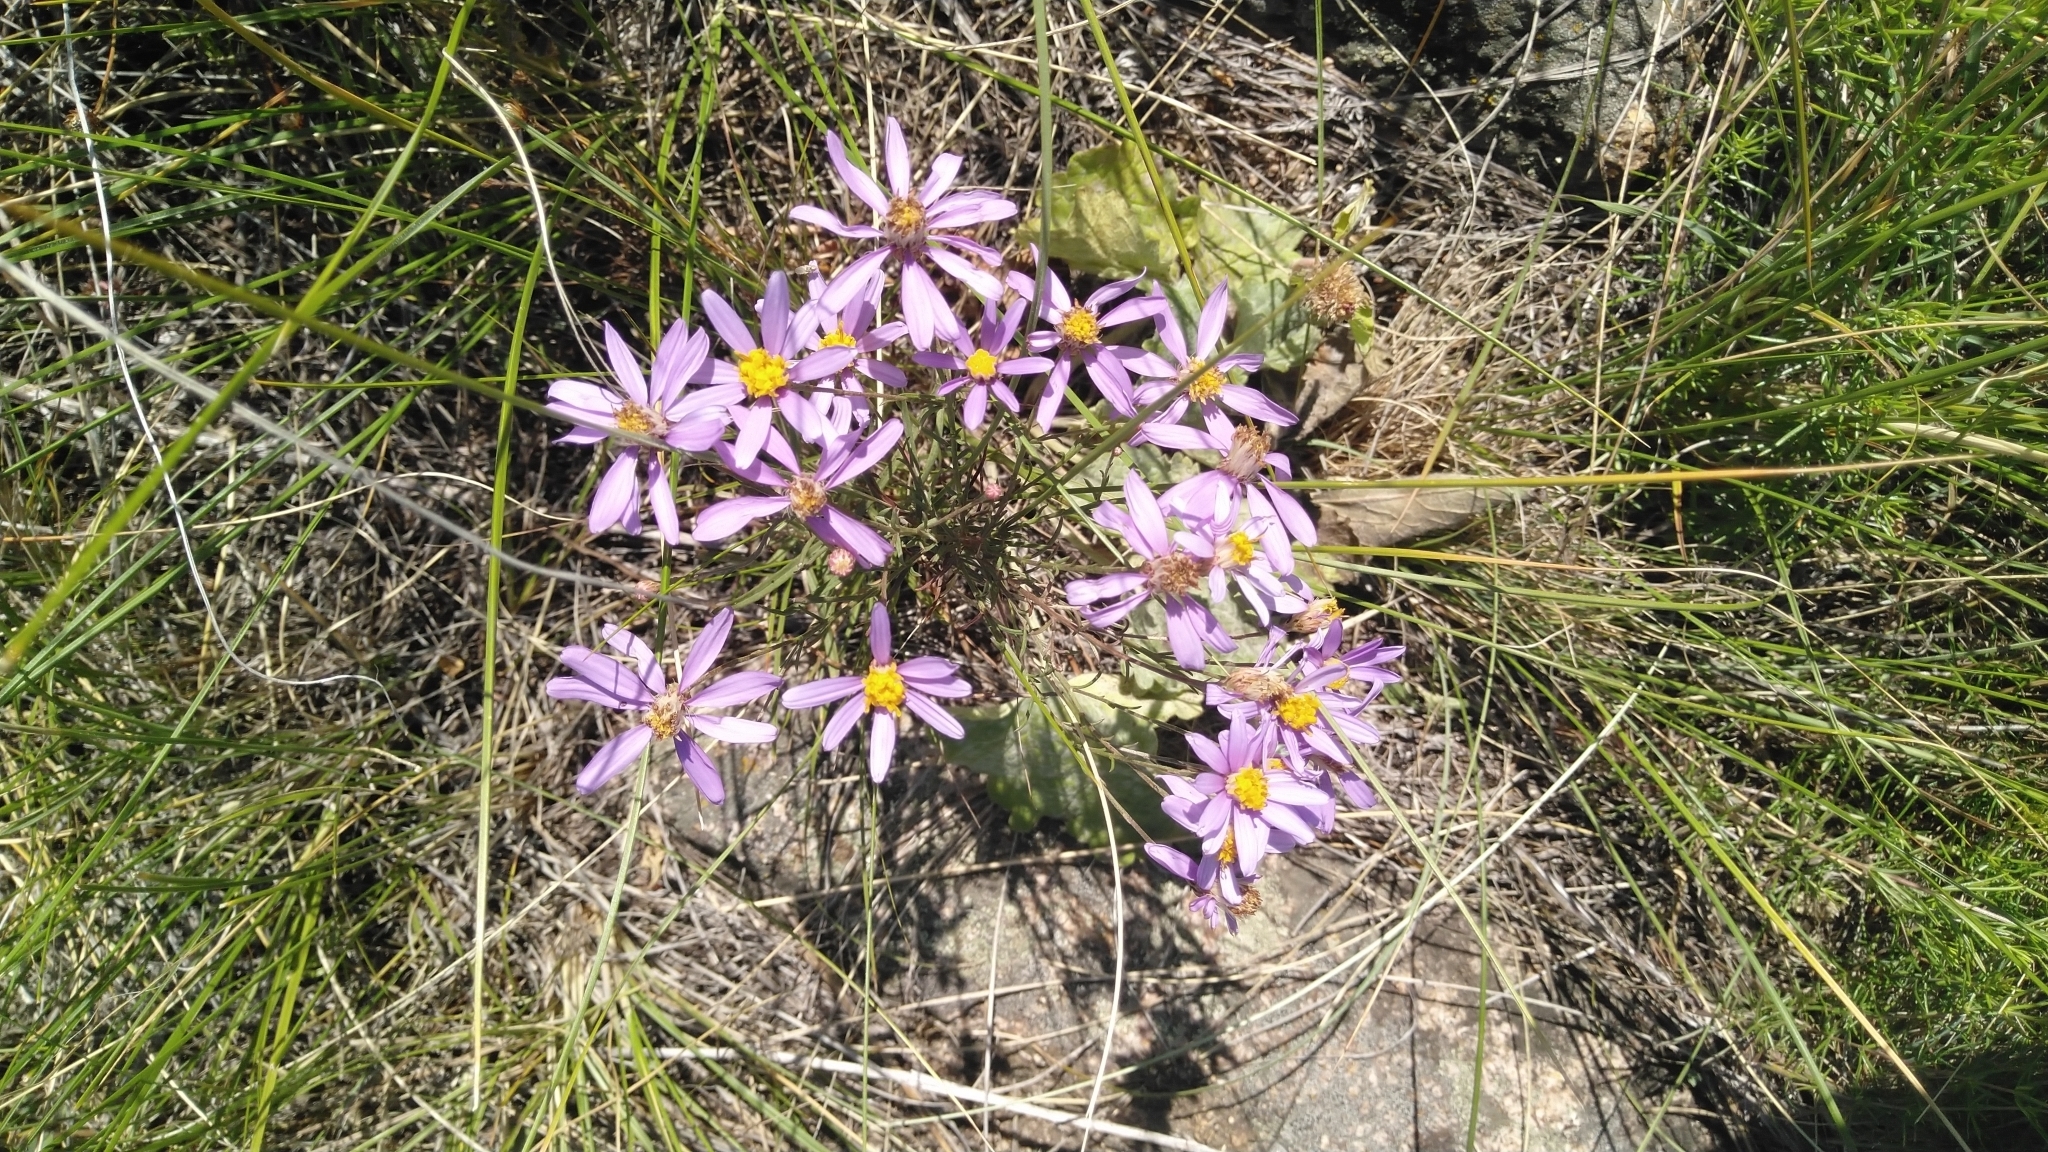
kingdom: Plantae
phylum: Tracheophyta
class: Magnoliopsida
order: Asterales
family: Asteraceae
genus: Galatella
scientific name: Galatella angustissima
